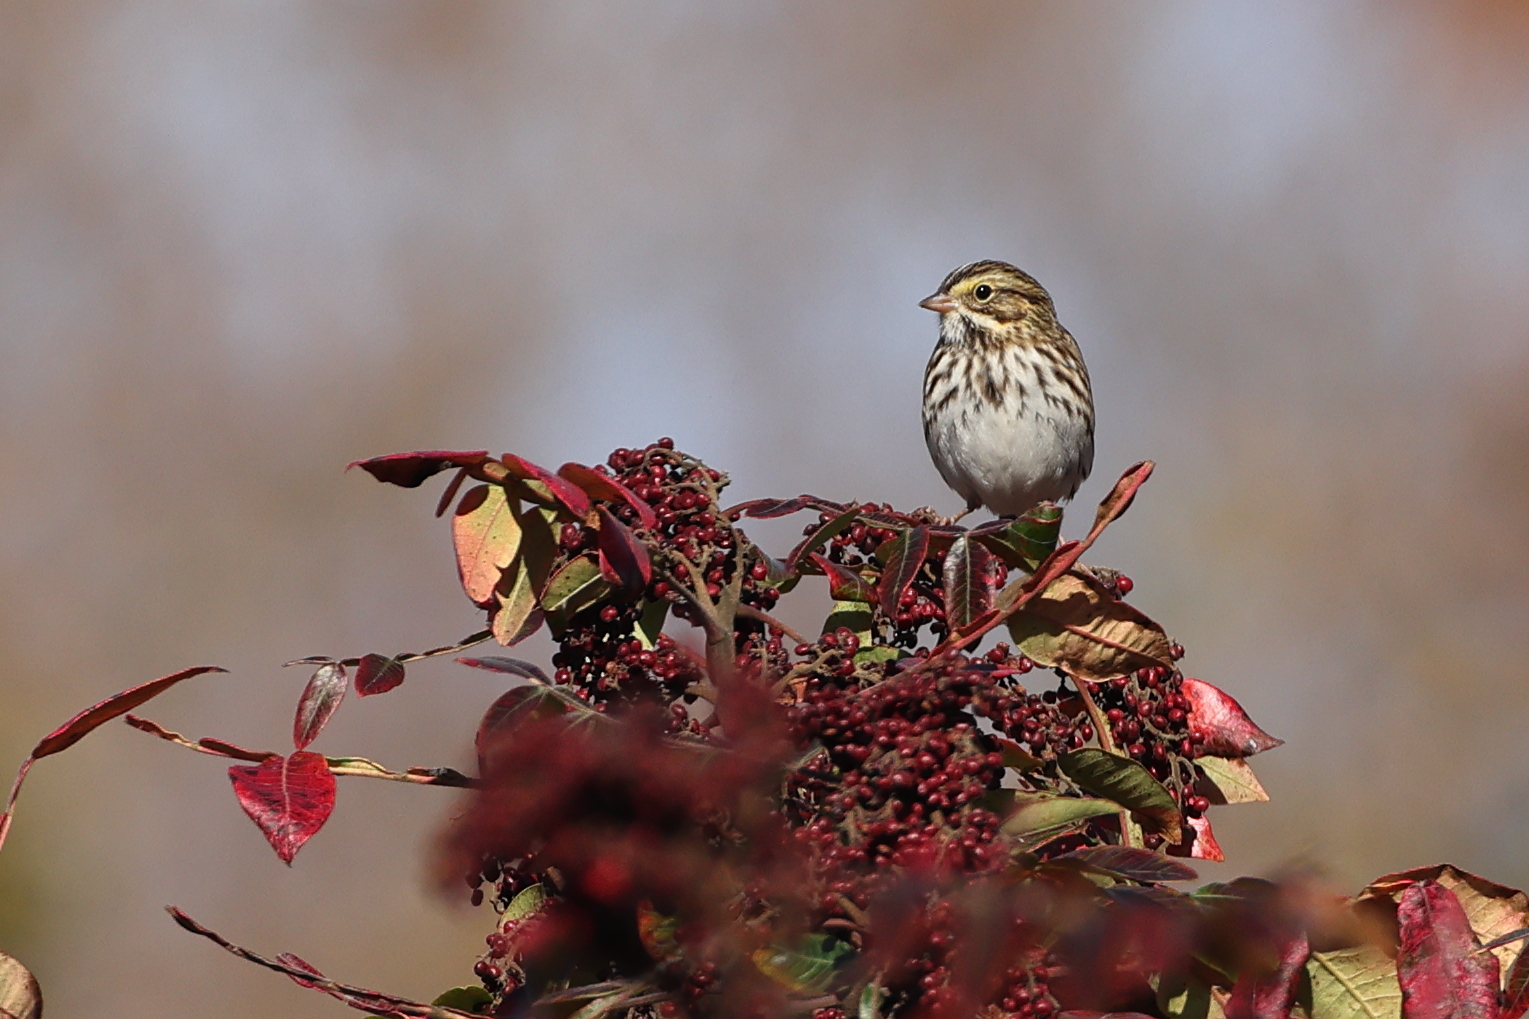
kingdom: Animalia
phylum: Chordata
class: Aves
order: Passeriformes
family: Passerellidae
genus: Passerculus
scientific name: Passerculus sandwichensis
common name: Savannah sparrow
